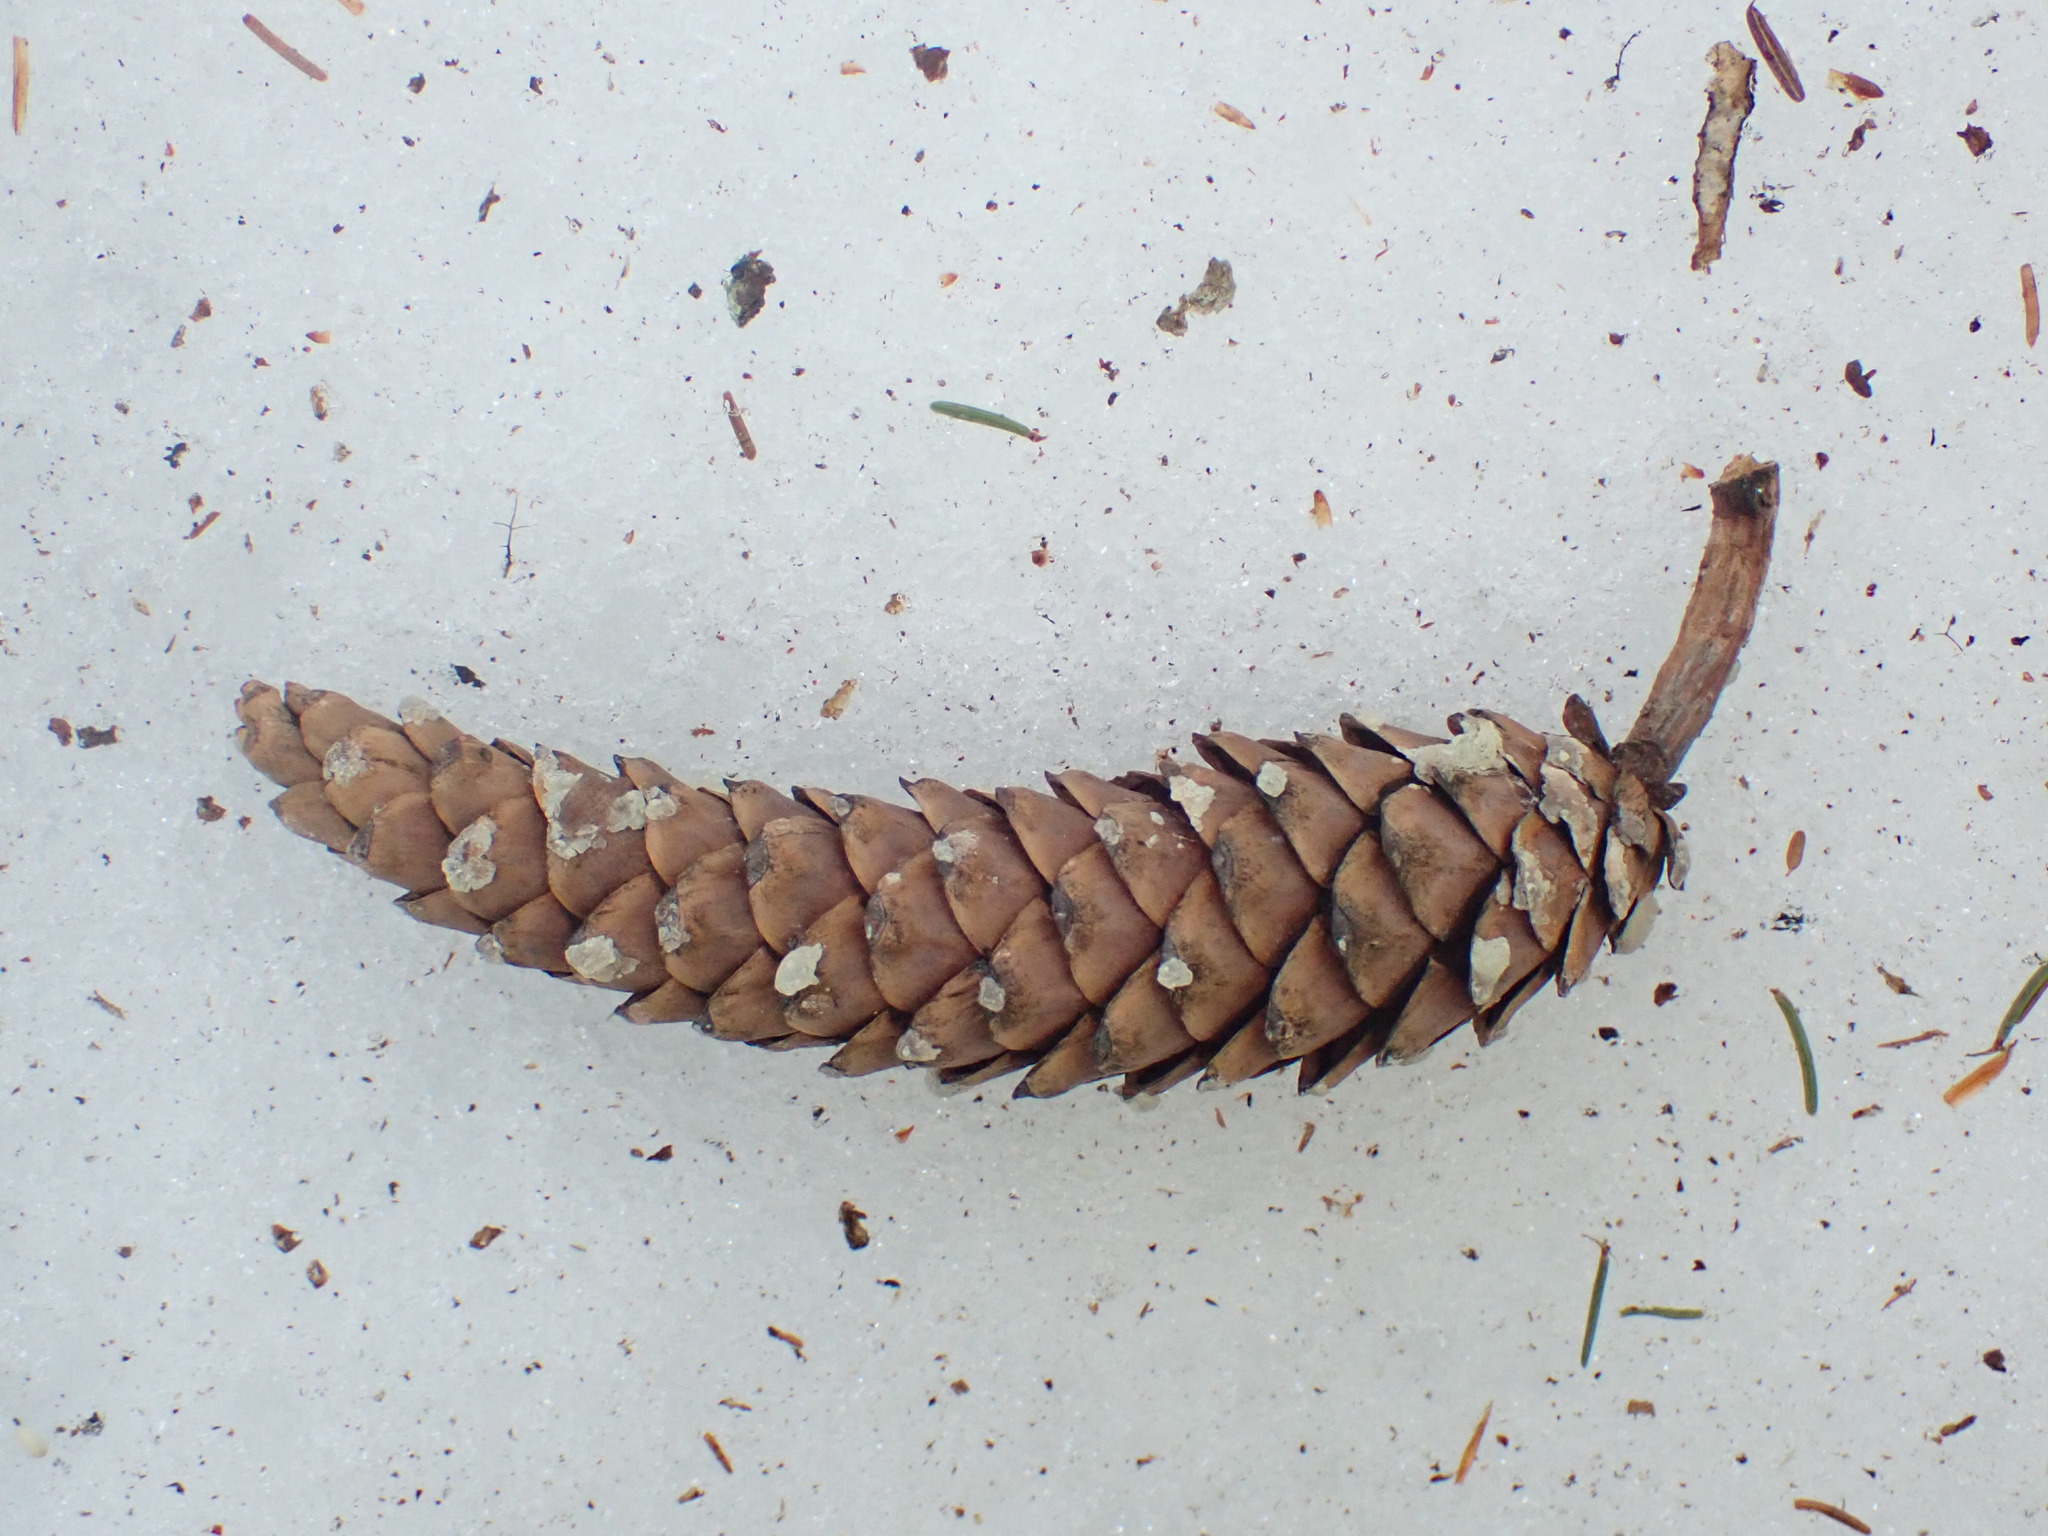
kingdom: Plantae
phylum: Tracheophyta
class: Pinopsida
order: Pinales
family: Pinaceae
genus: Pinus
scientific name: Pinus strobus
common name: Weymouth pine
